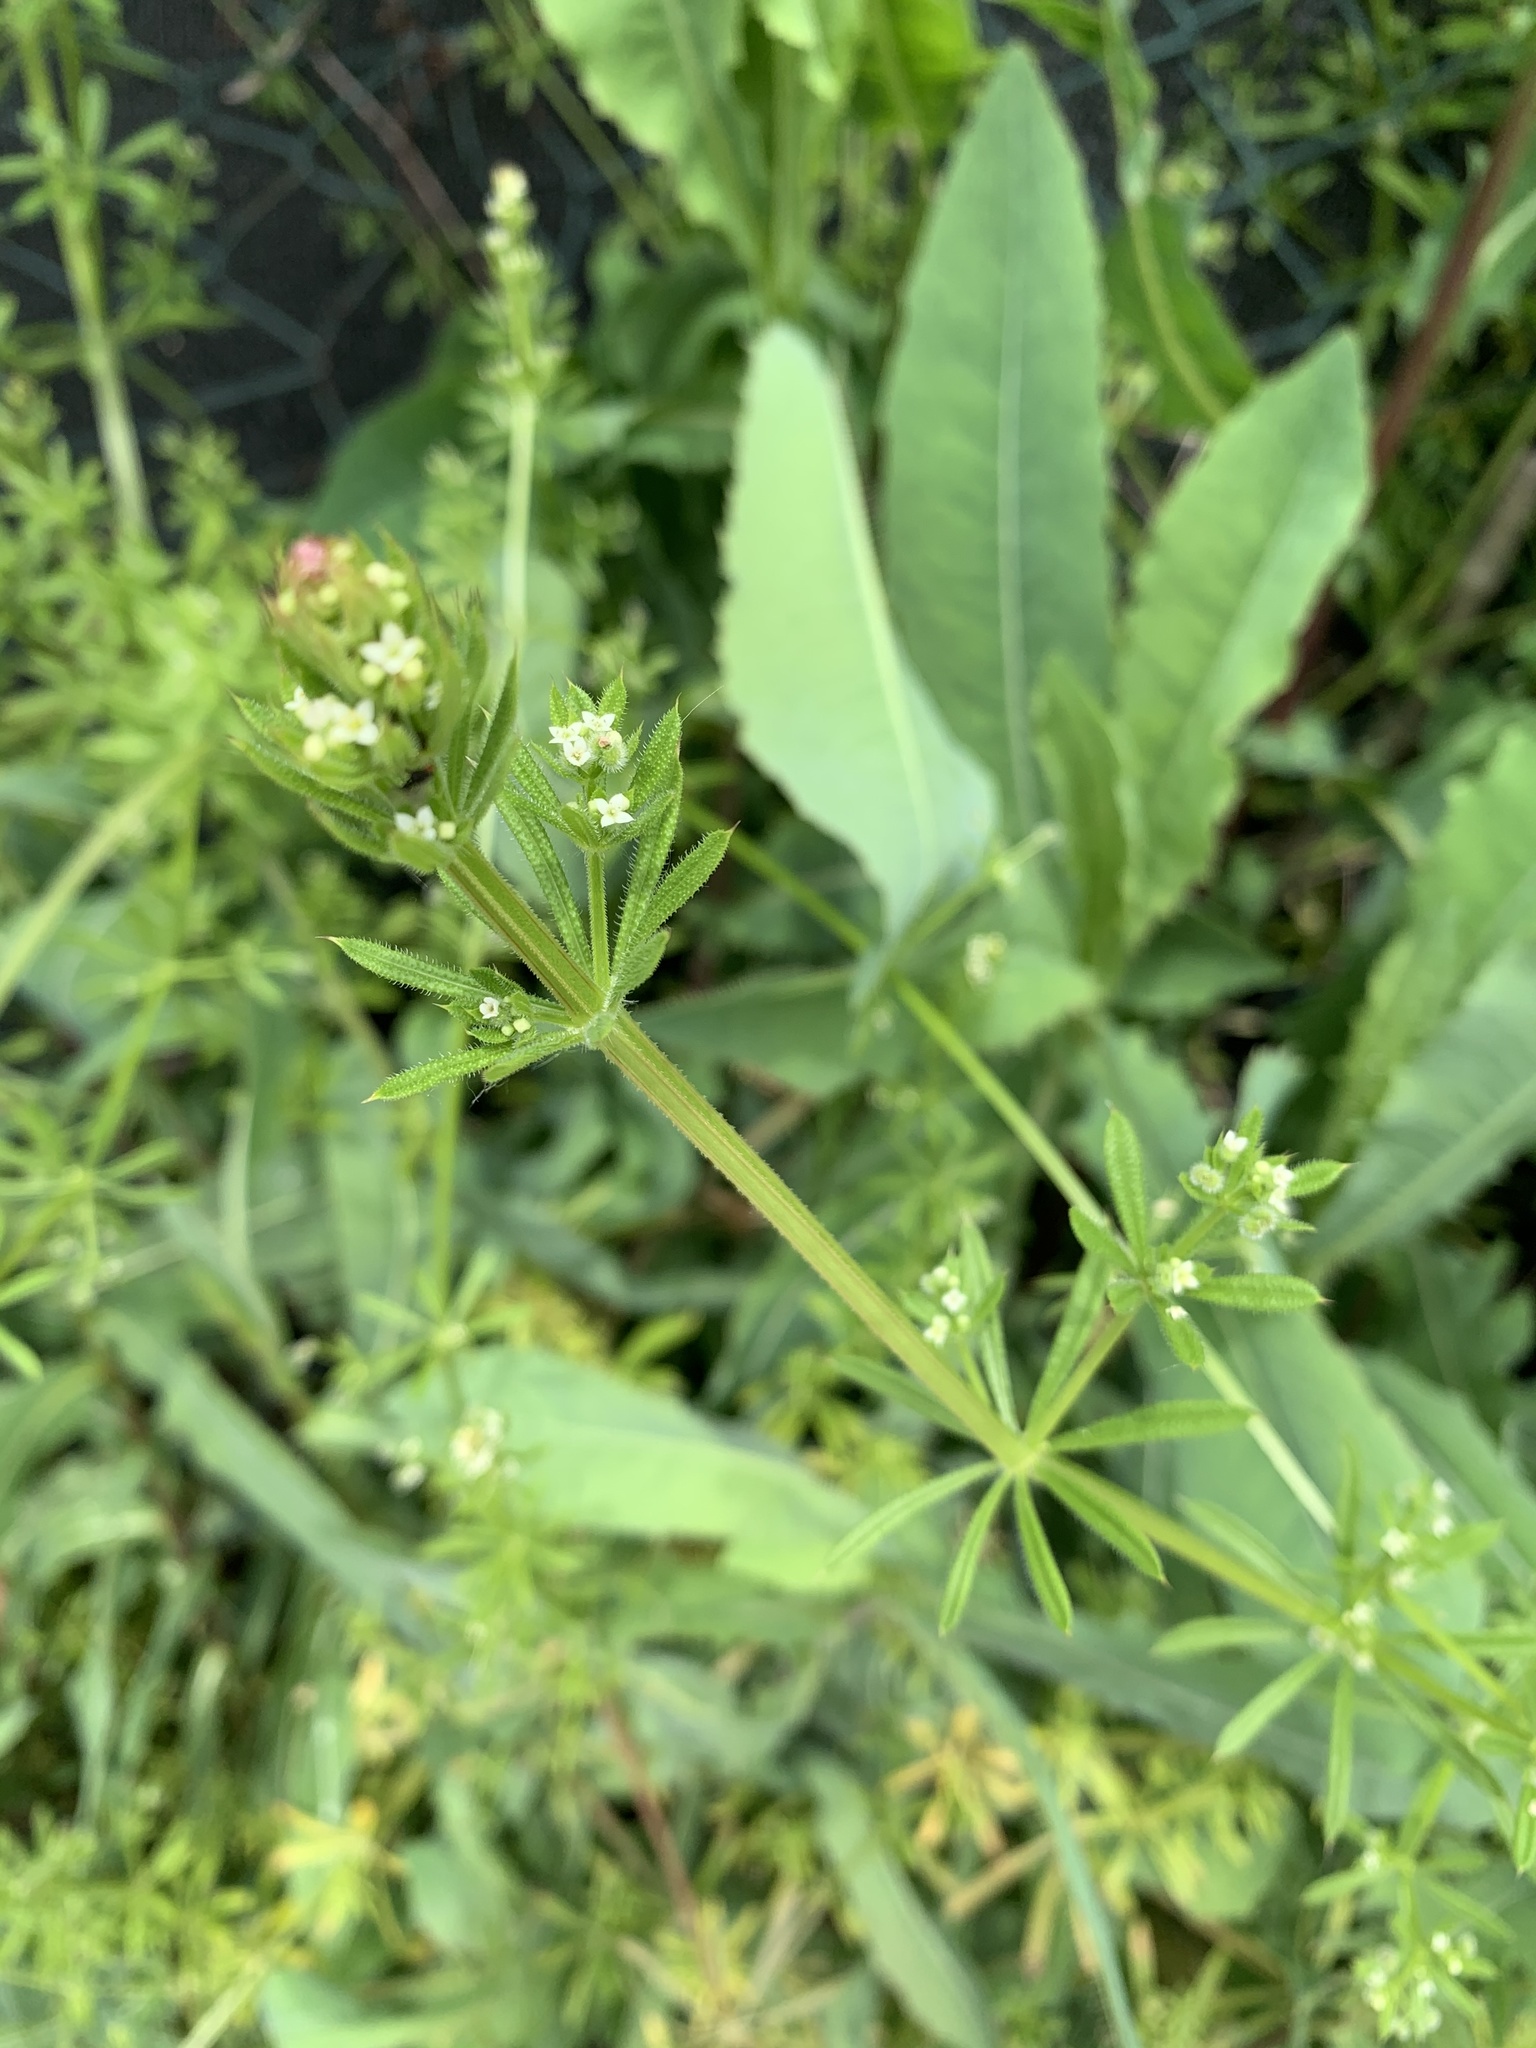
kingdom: Plantae
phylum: Tracheophyta
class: Magnoliopsida
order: Gentianales
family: Rubiaceae
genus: Galium
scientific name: Galium aparine
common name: Cleavers
